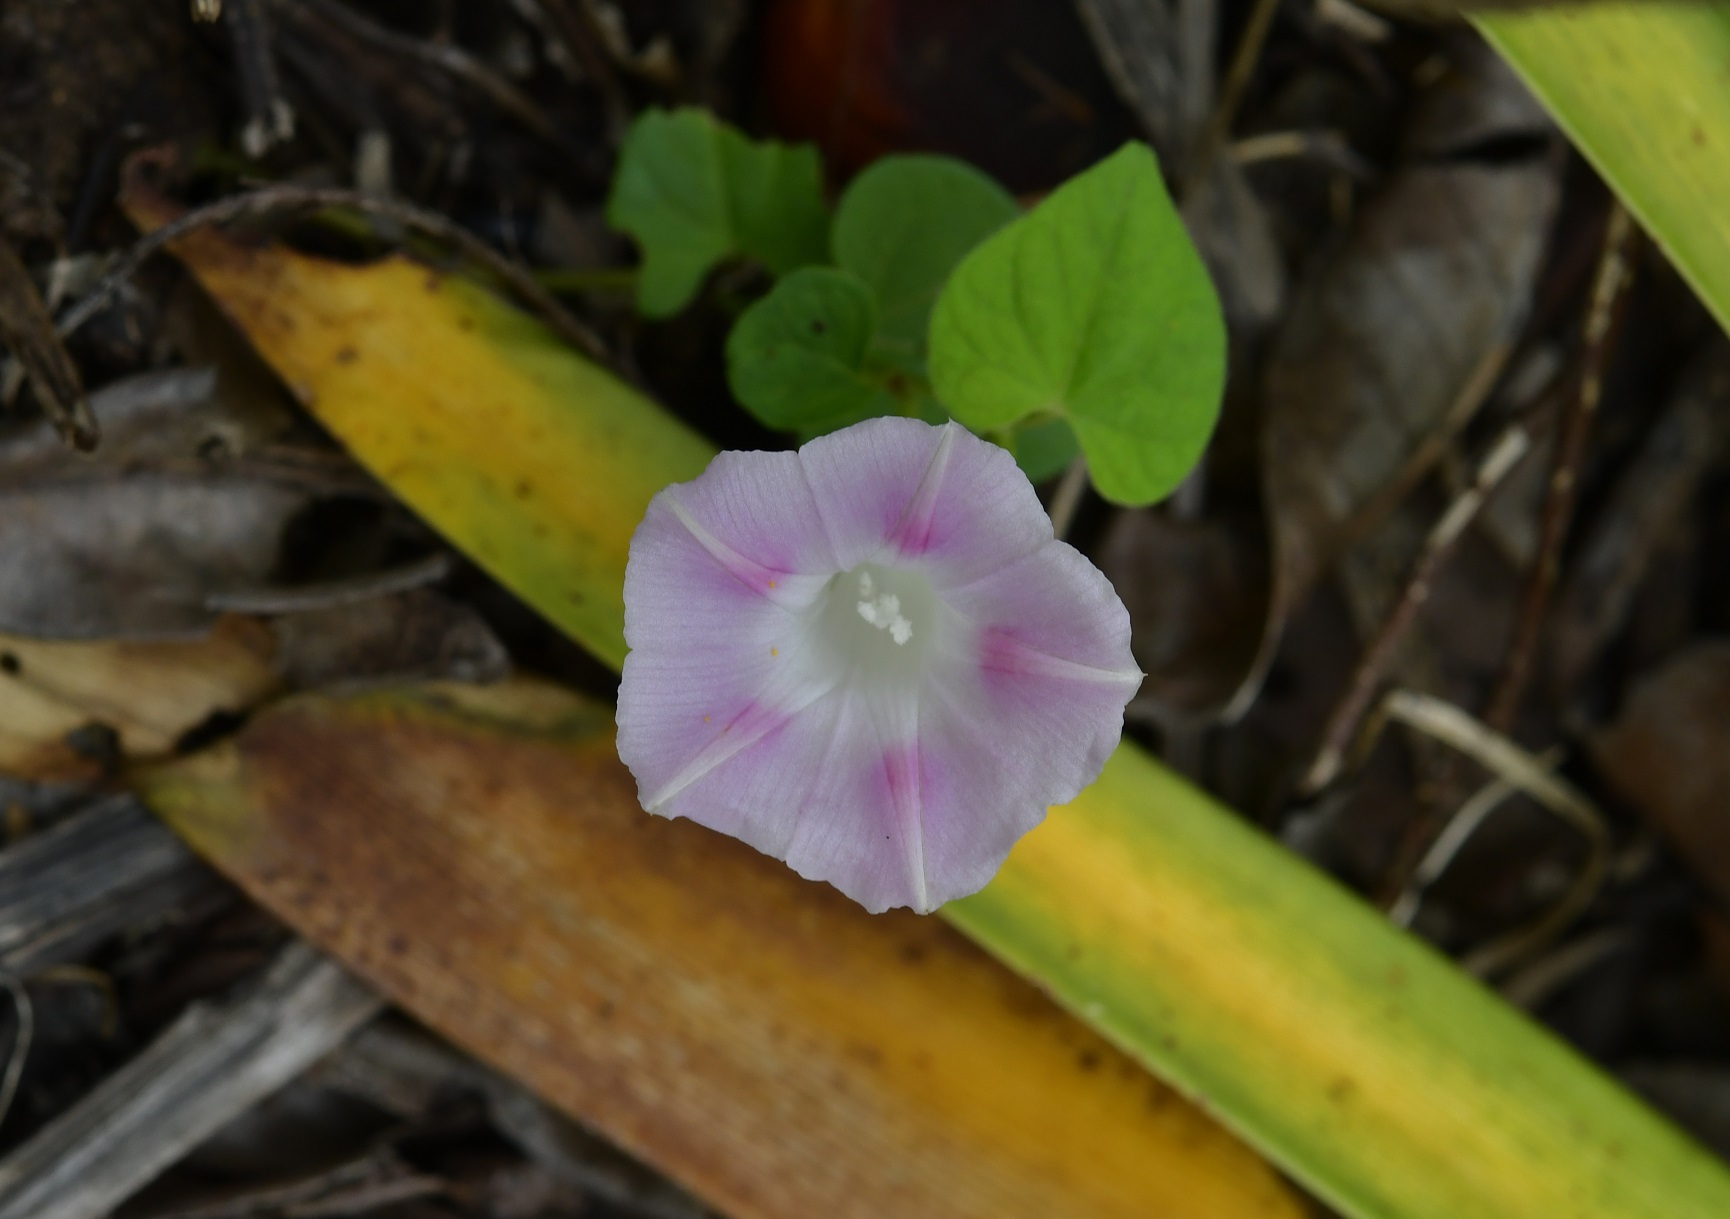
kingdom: Plantae
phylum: Tracheophyta
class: Magnoliopsida
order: Solanales
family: Convolvulaceae
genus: Ipomoea
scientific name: Ipomoea purpurea
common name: Common morning-glory
